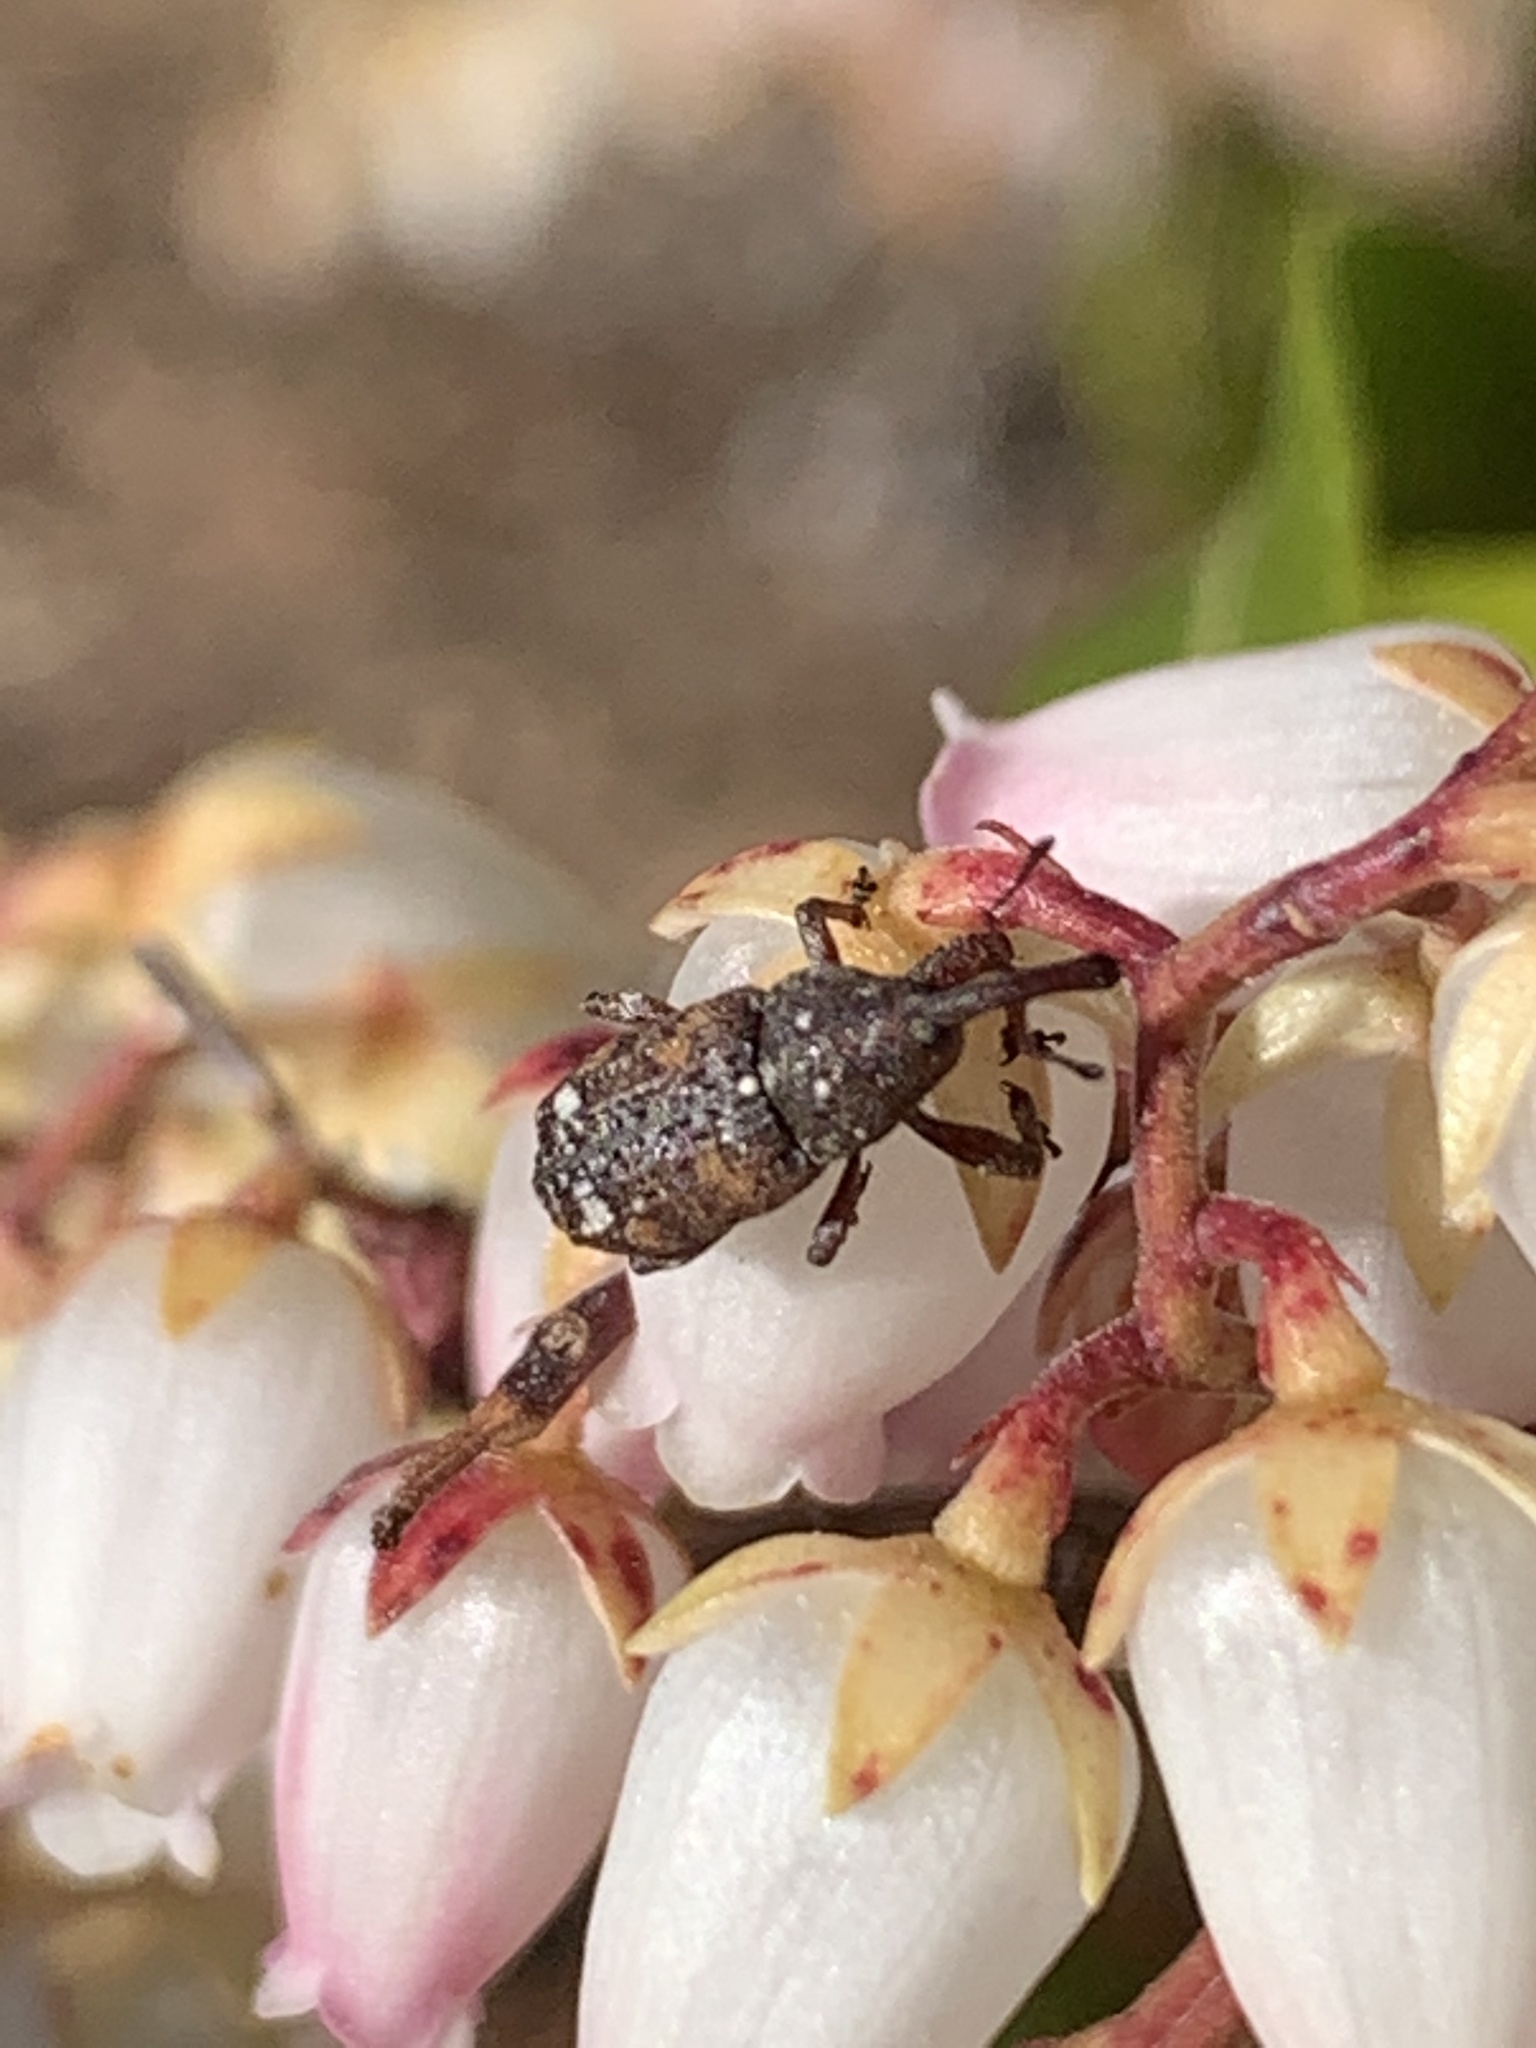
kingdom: Animalia
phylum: Arthropoda
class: Insecta
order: Coleoptera
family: Curculionidae
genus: Pissodes
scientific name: Pissodes strobi
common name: White pine weevil
